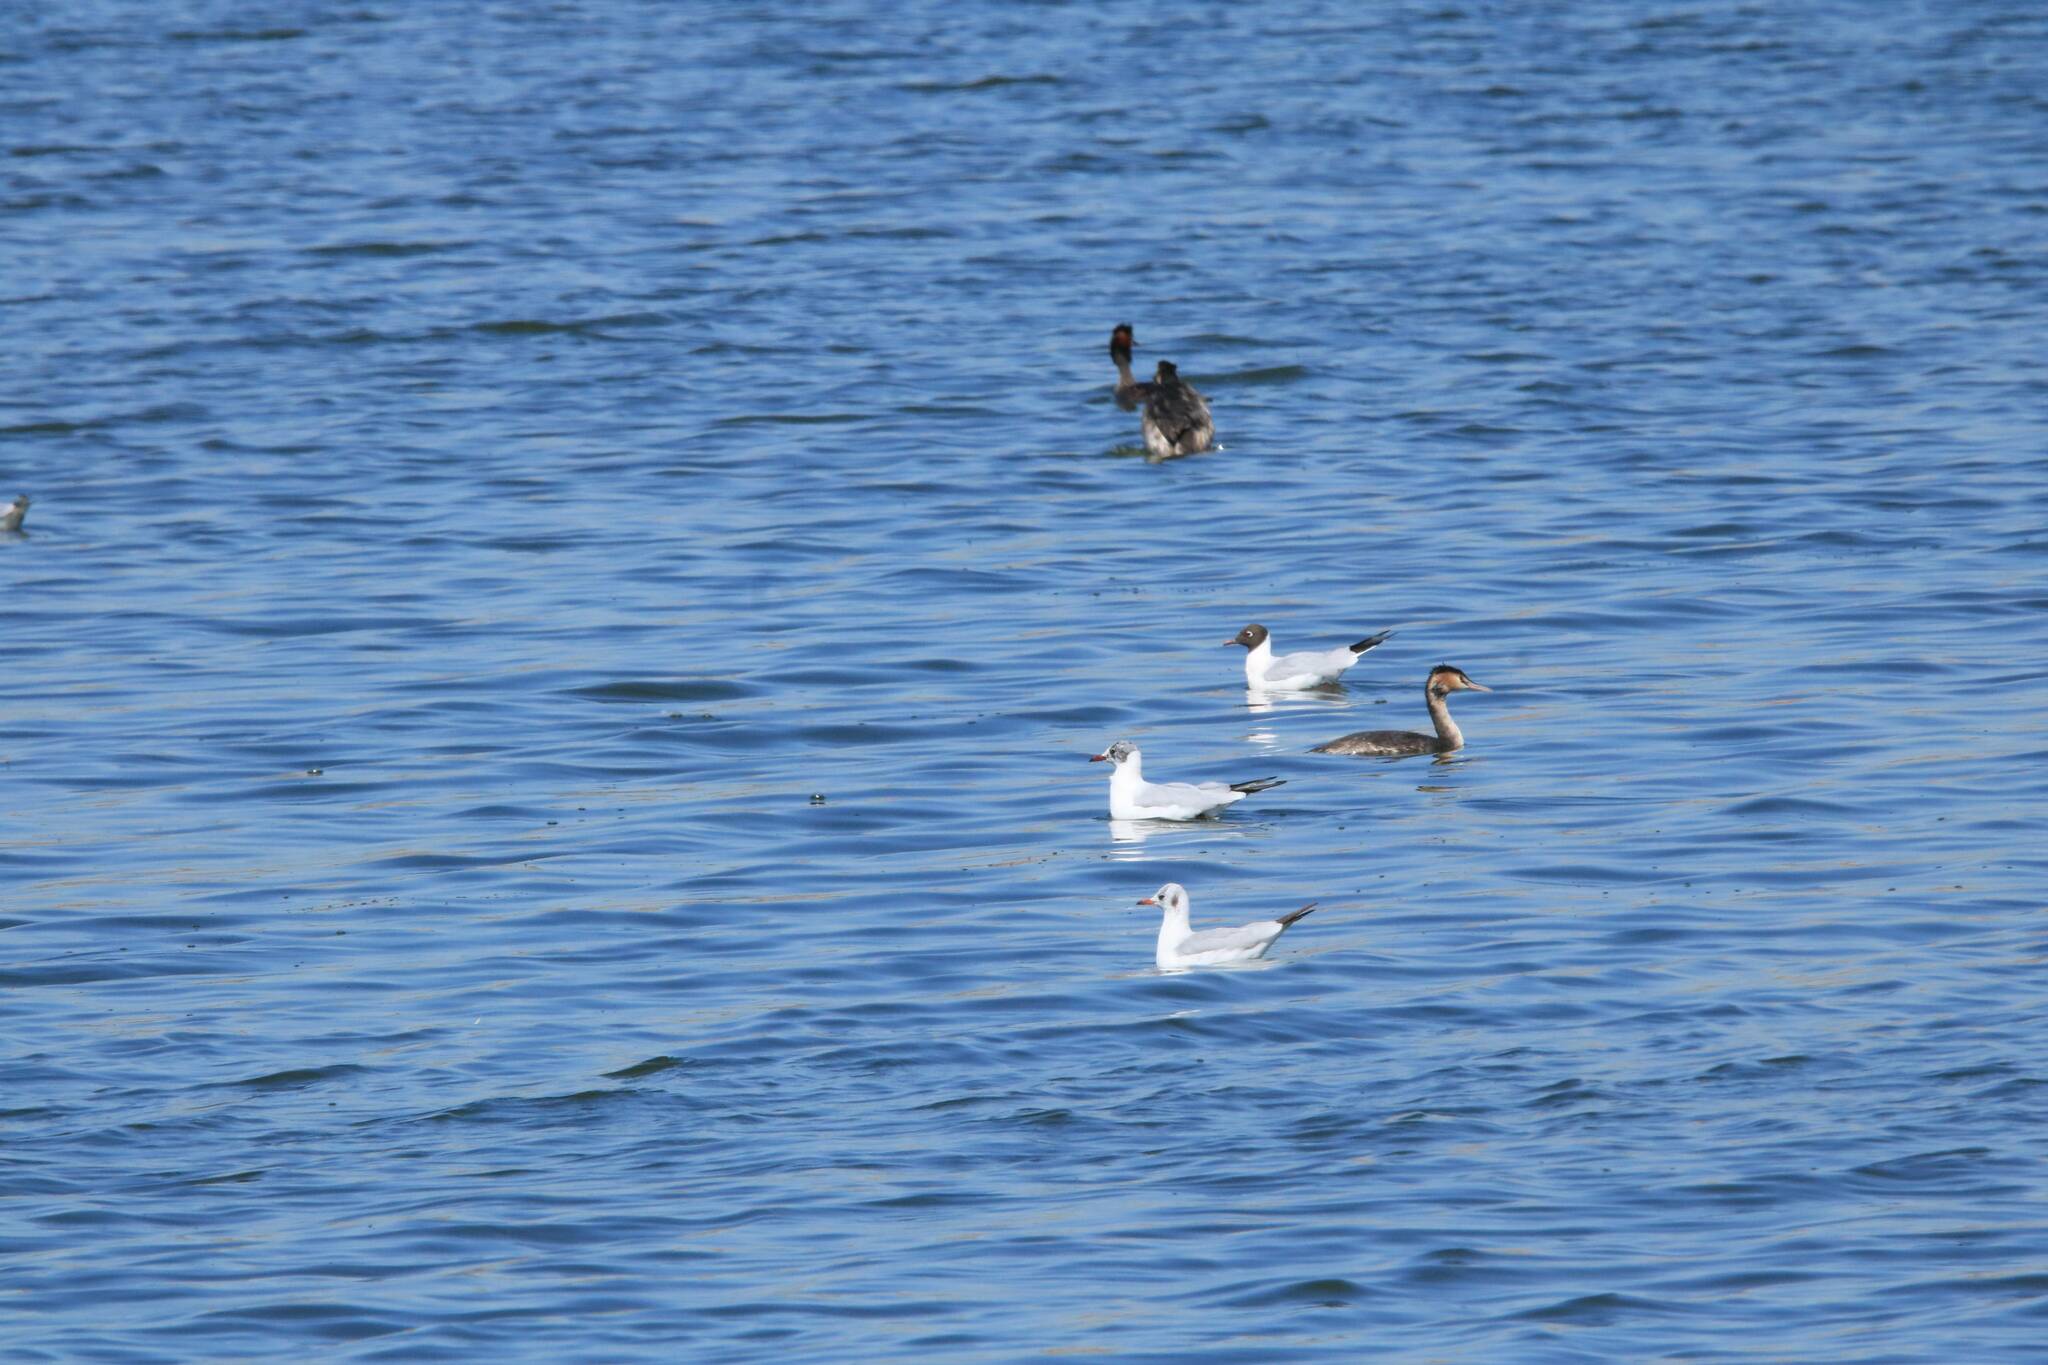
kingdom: Animalia
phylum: Chordata
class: Aves
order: Charadriiformes
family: Laridae
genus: Chroicocephalus
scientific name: Chroicocephalus ridibundus
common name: Black-headed gull
